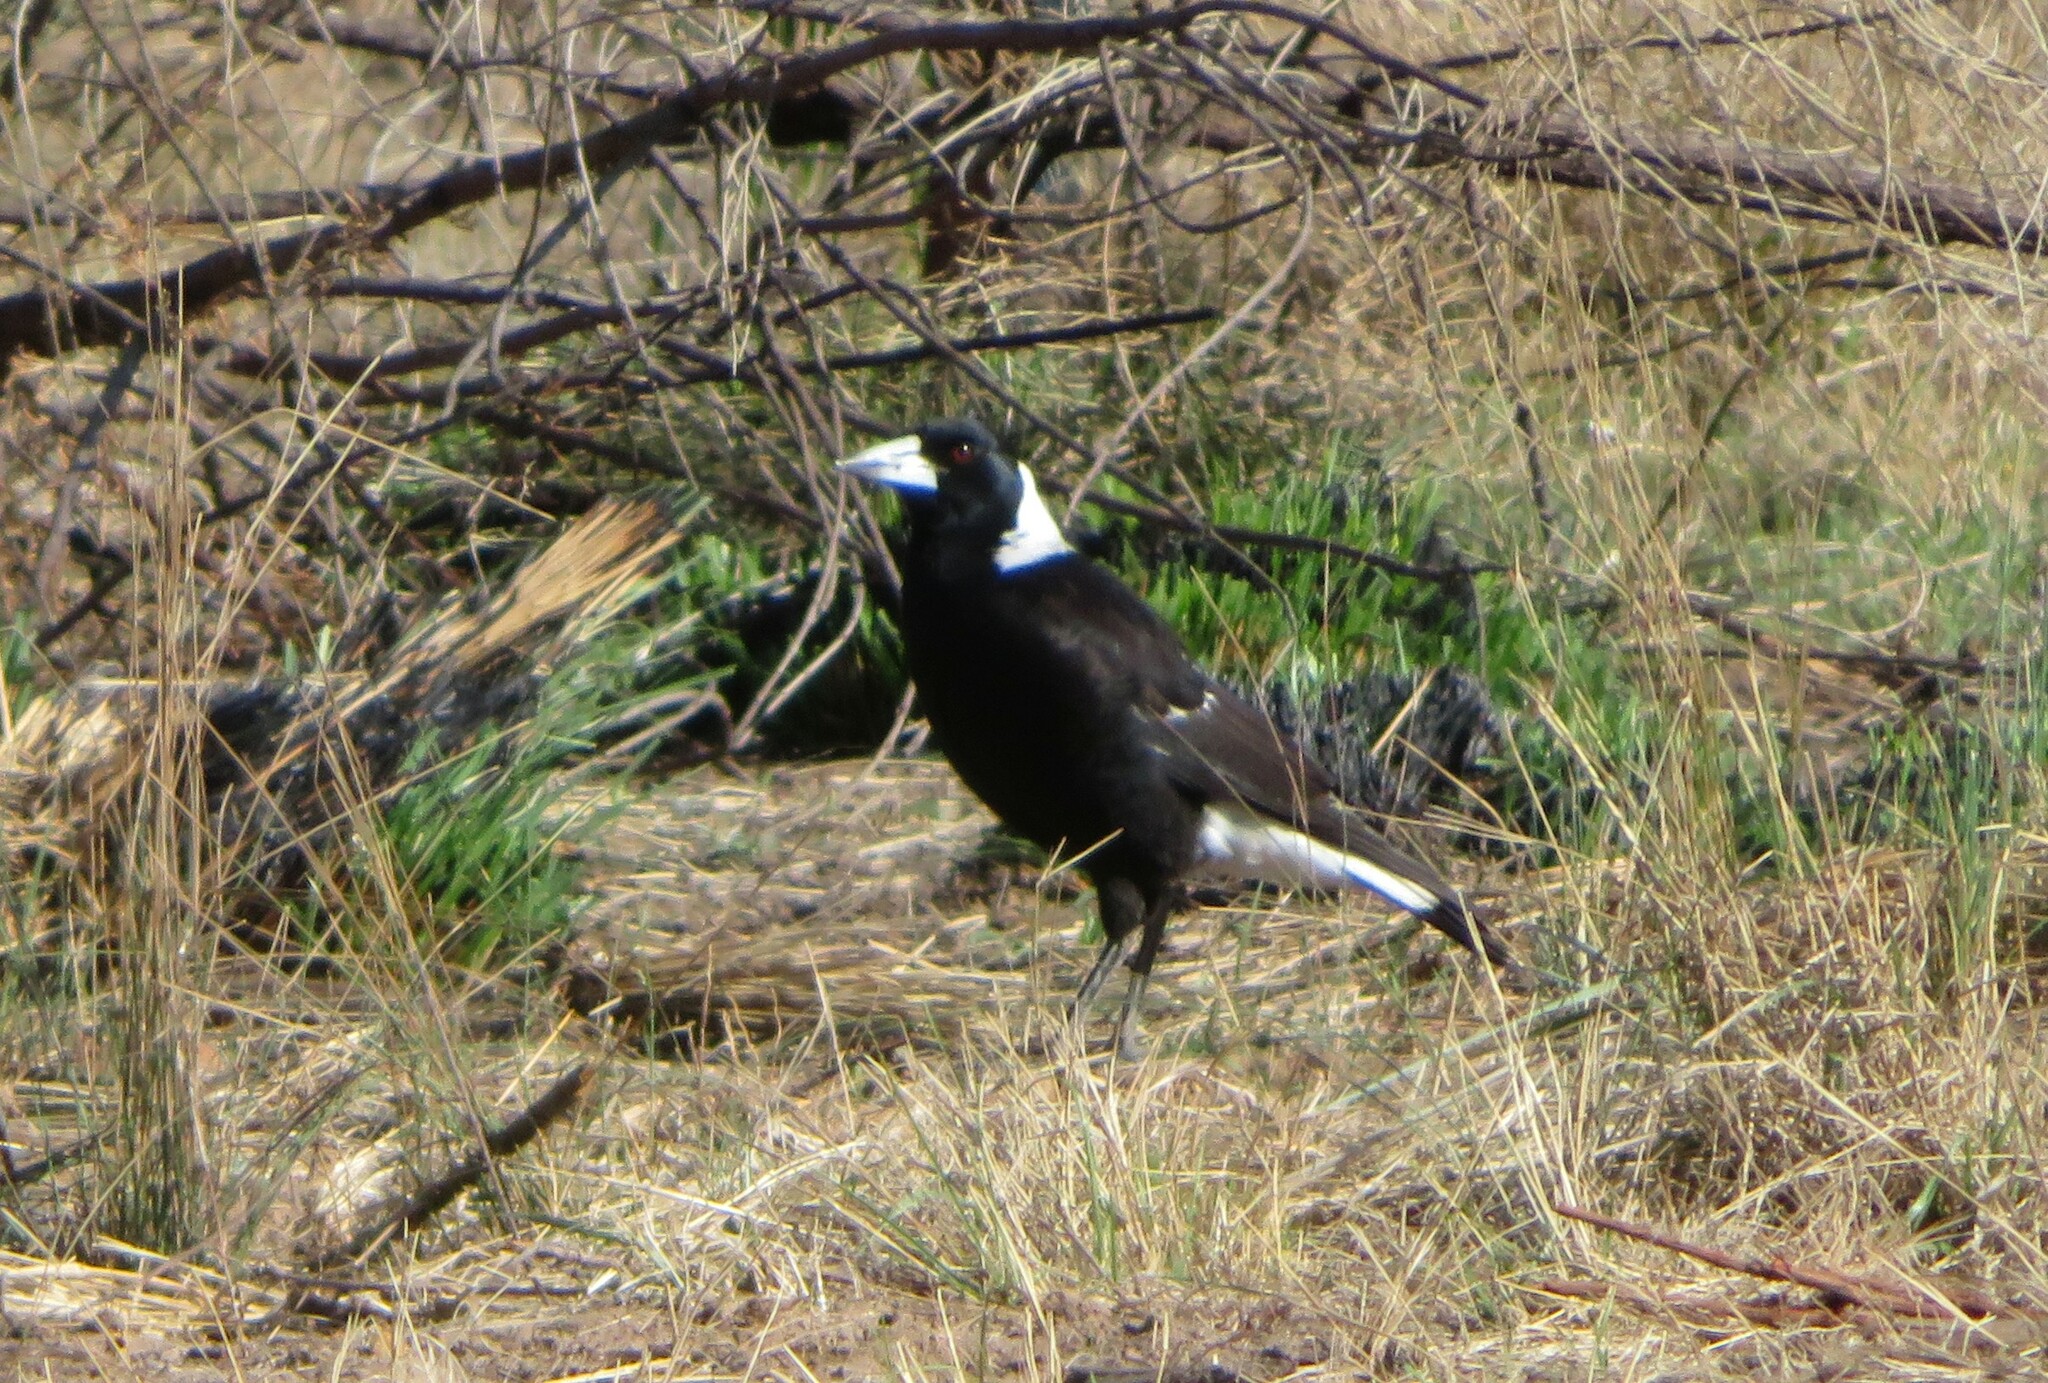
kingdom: Animalia
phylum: Chordata
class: Aves
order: Passeriformes
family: Cracticidae
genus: Gymnorhina
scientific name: Gymnorhina tibicen
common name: Australian magpie
